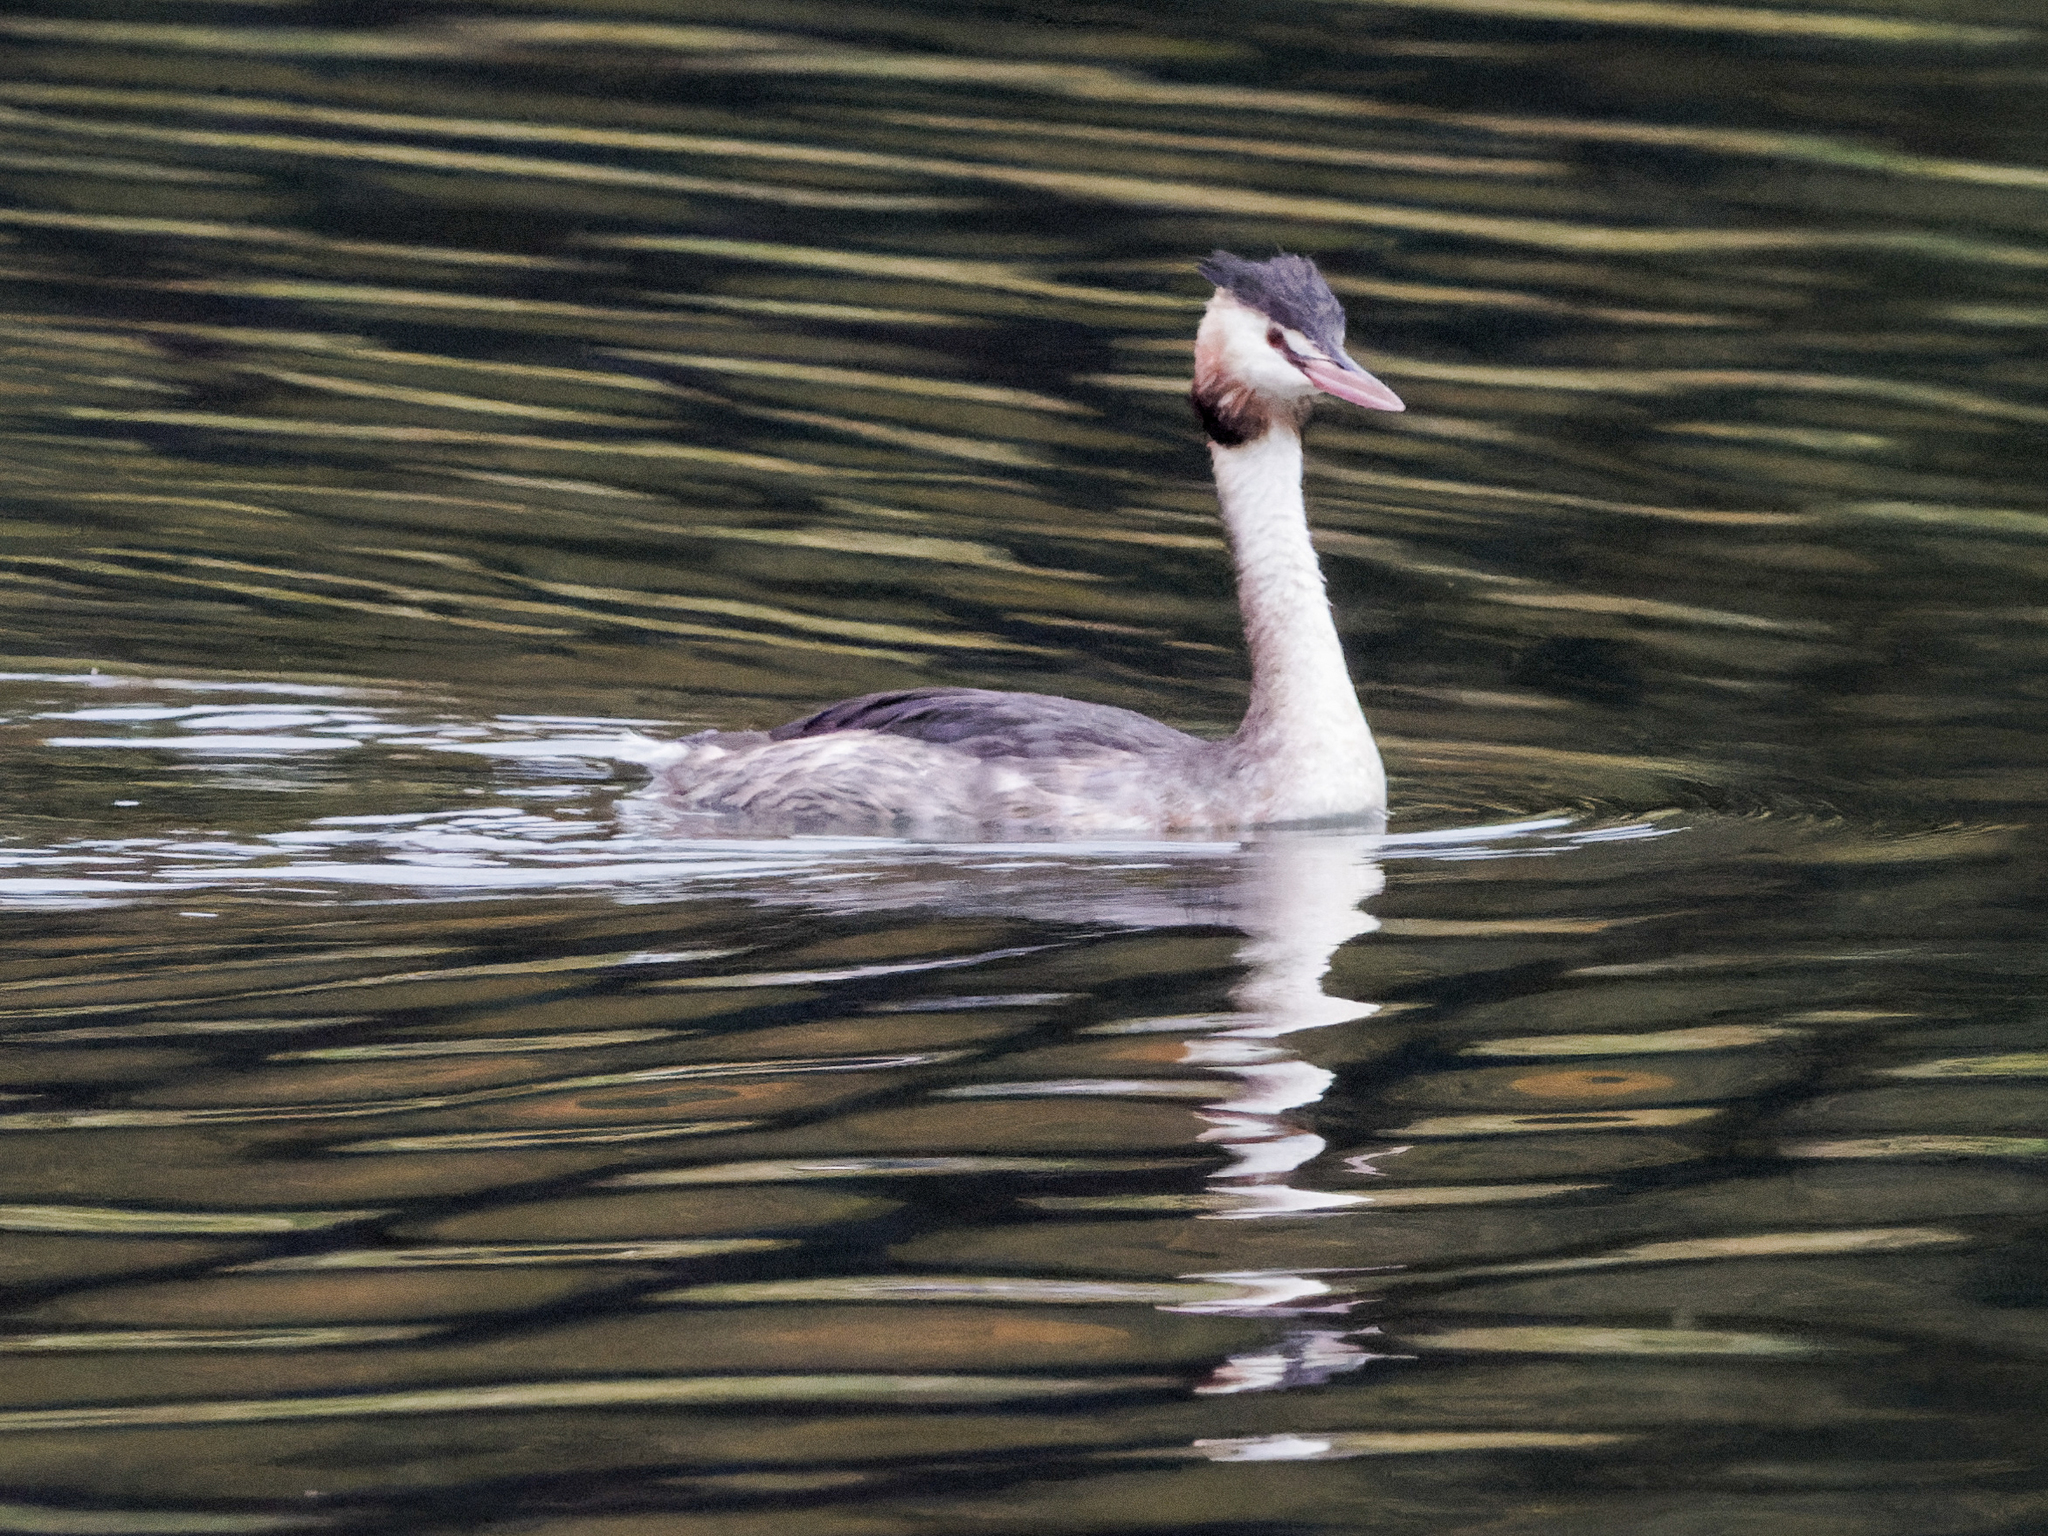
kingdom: Animalia
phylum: Chordata
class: Aves
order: Podicipediformes
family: Podicipedidae
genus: Podiceps
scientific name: Podiceps cristatus
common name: Great crested grebe
